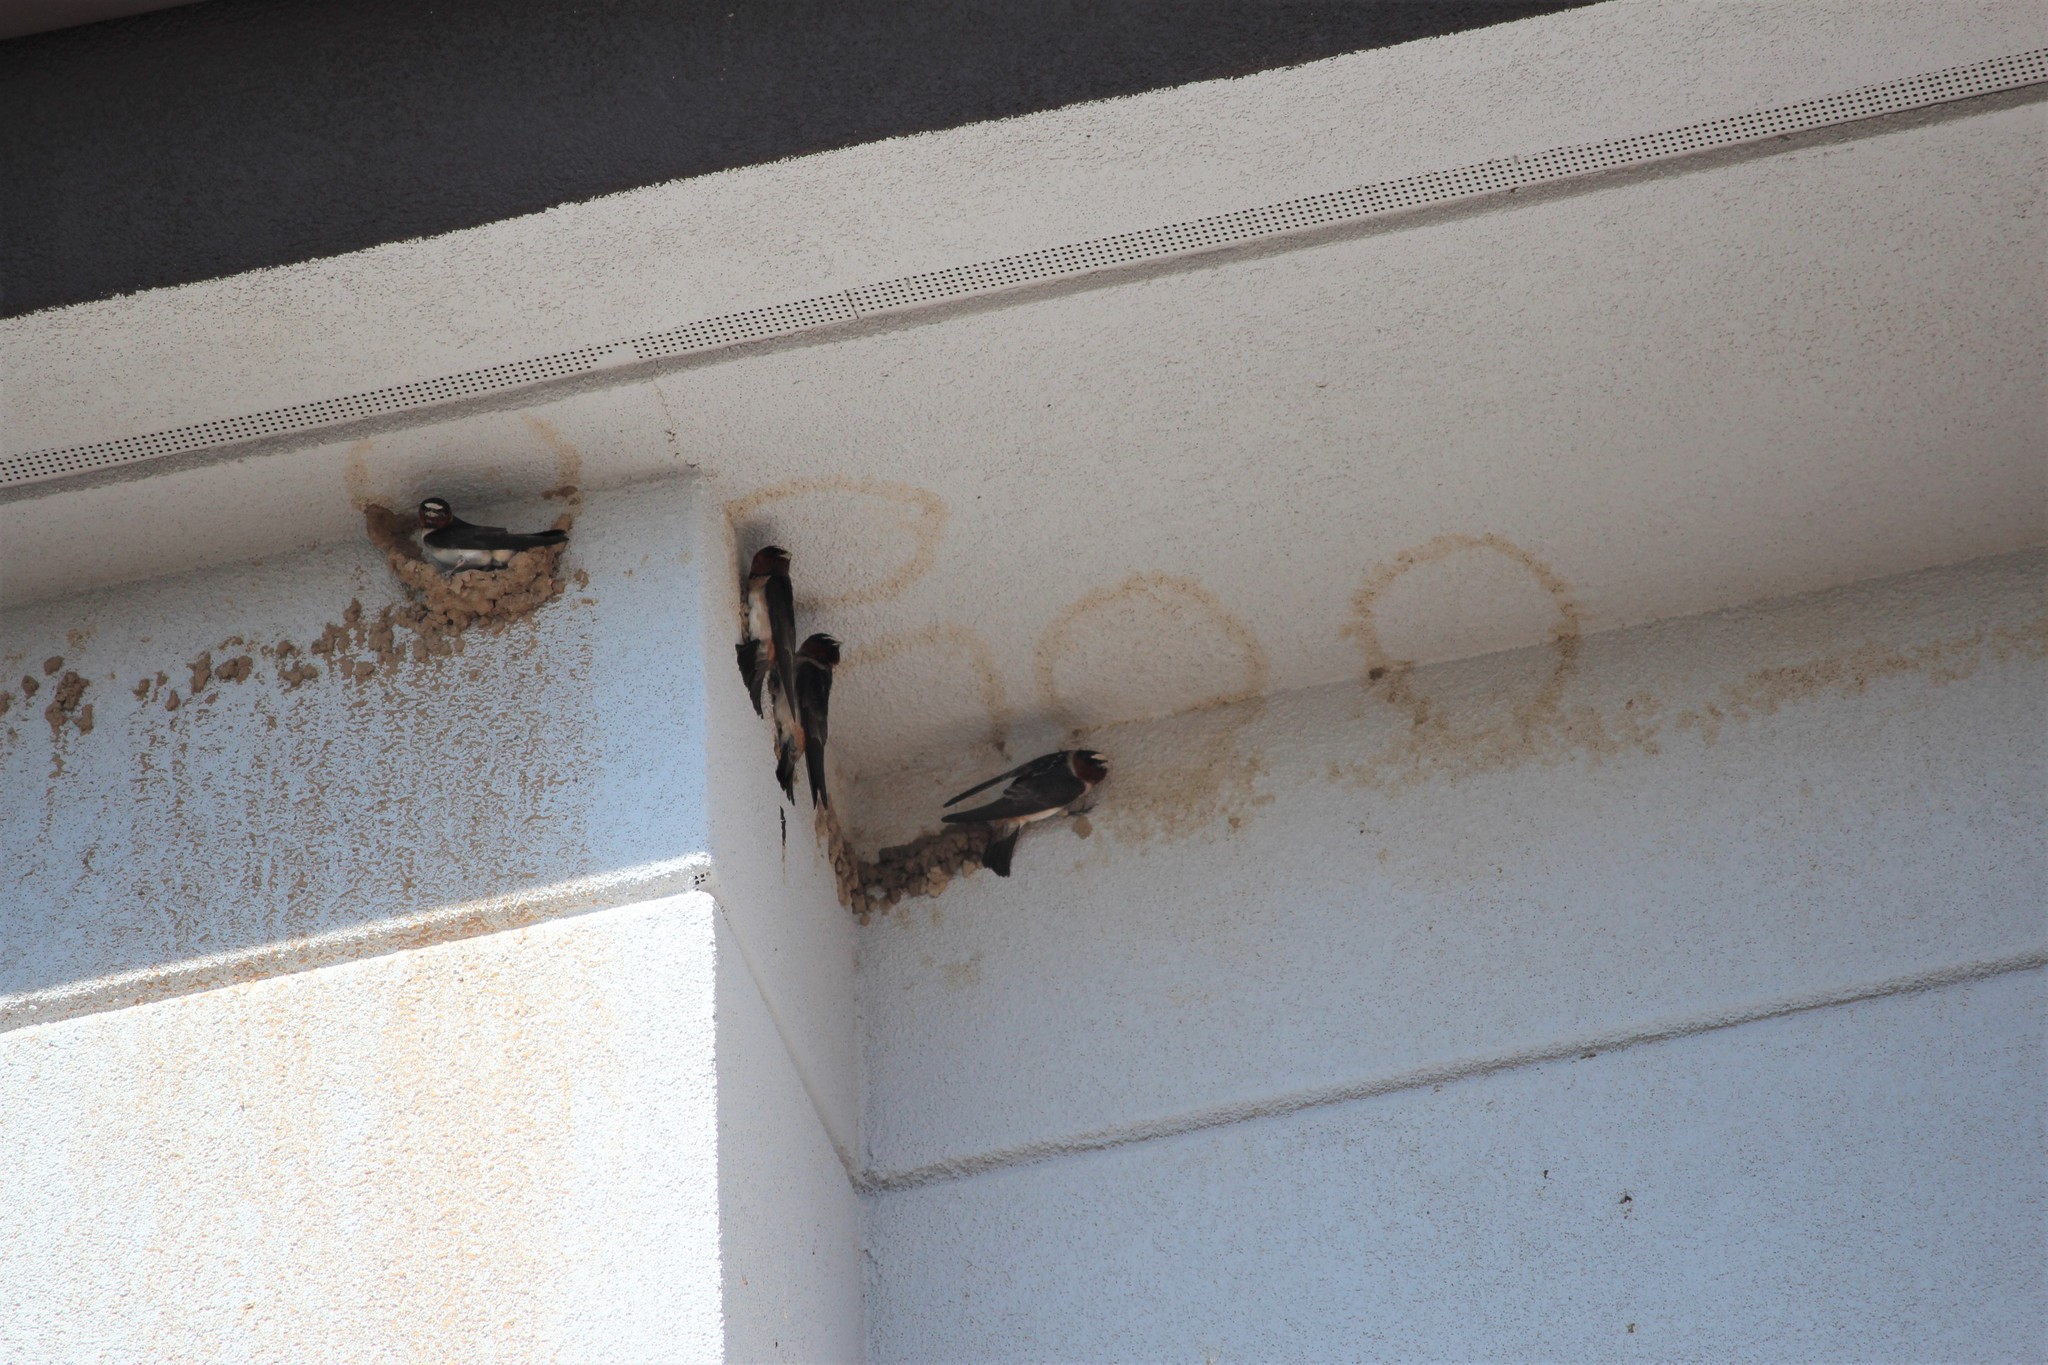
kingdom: Animalia
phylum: Chordata
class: Aves
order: Passeriformes
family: Hirundinidae
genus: Petrochelidon
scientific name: Petrochelidon pyrrhonota
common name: American cliff swallow
